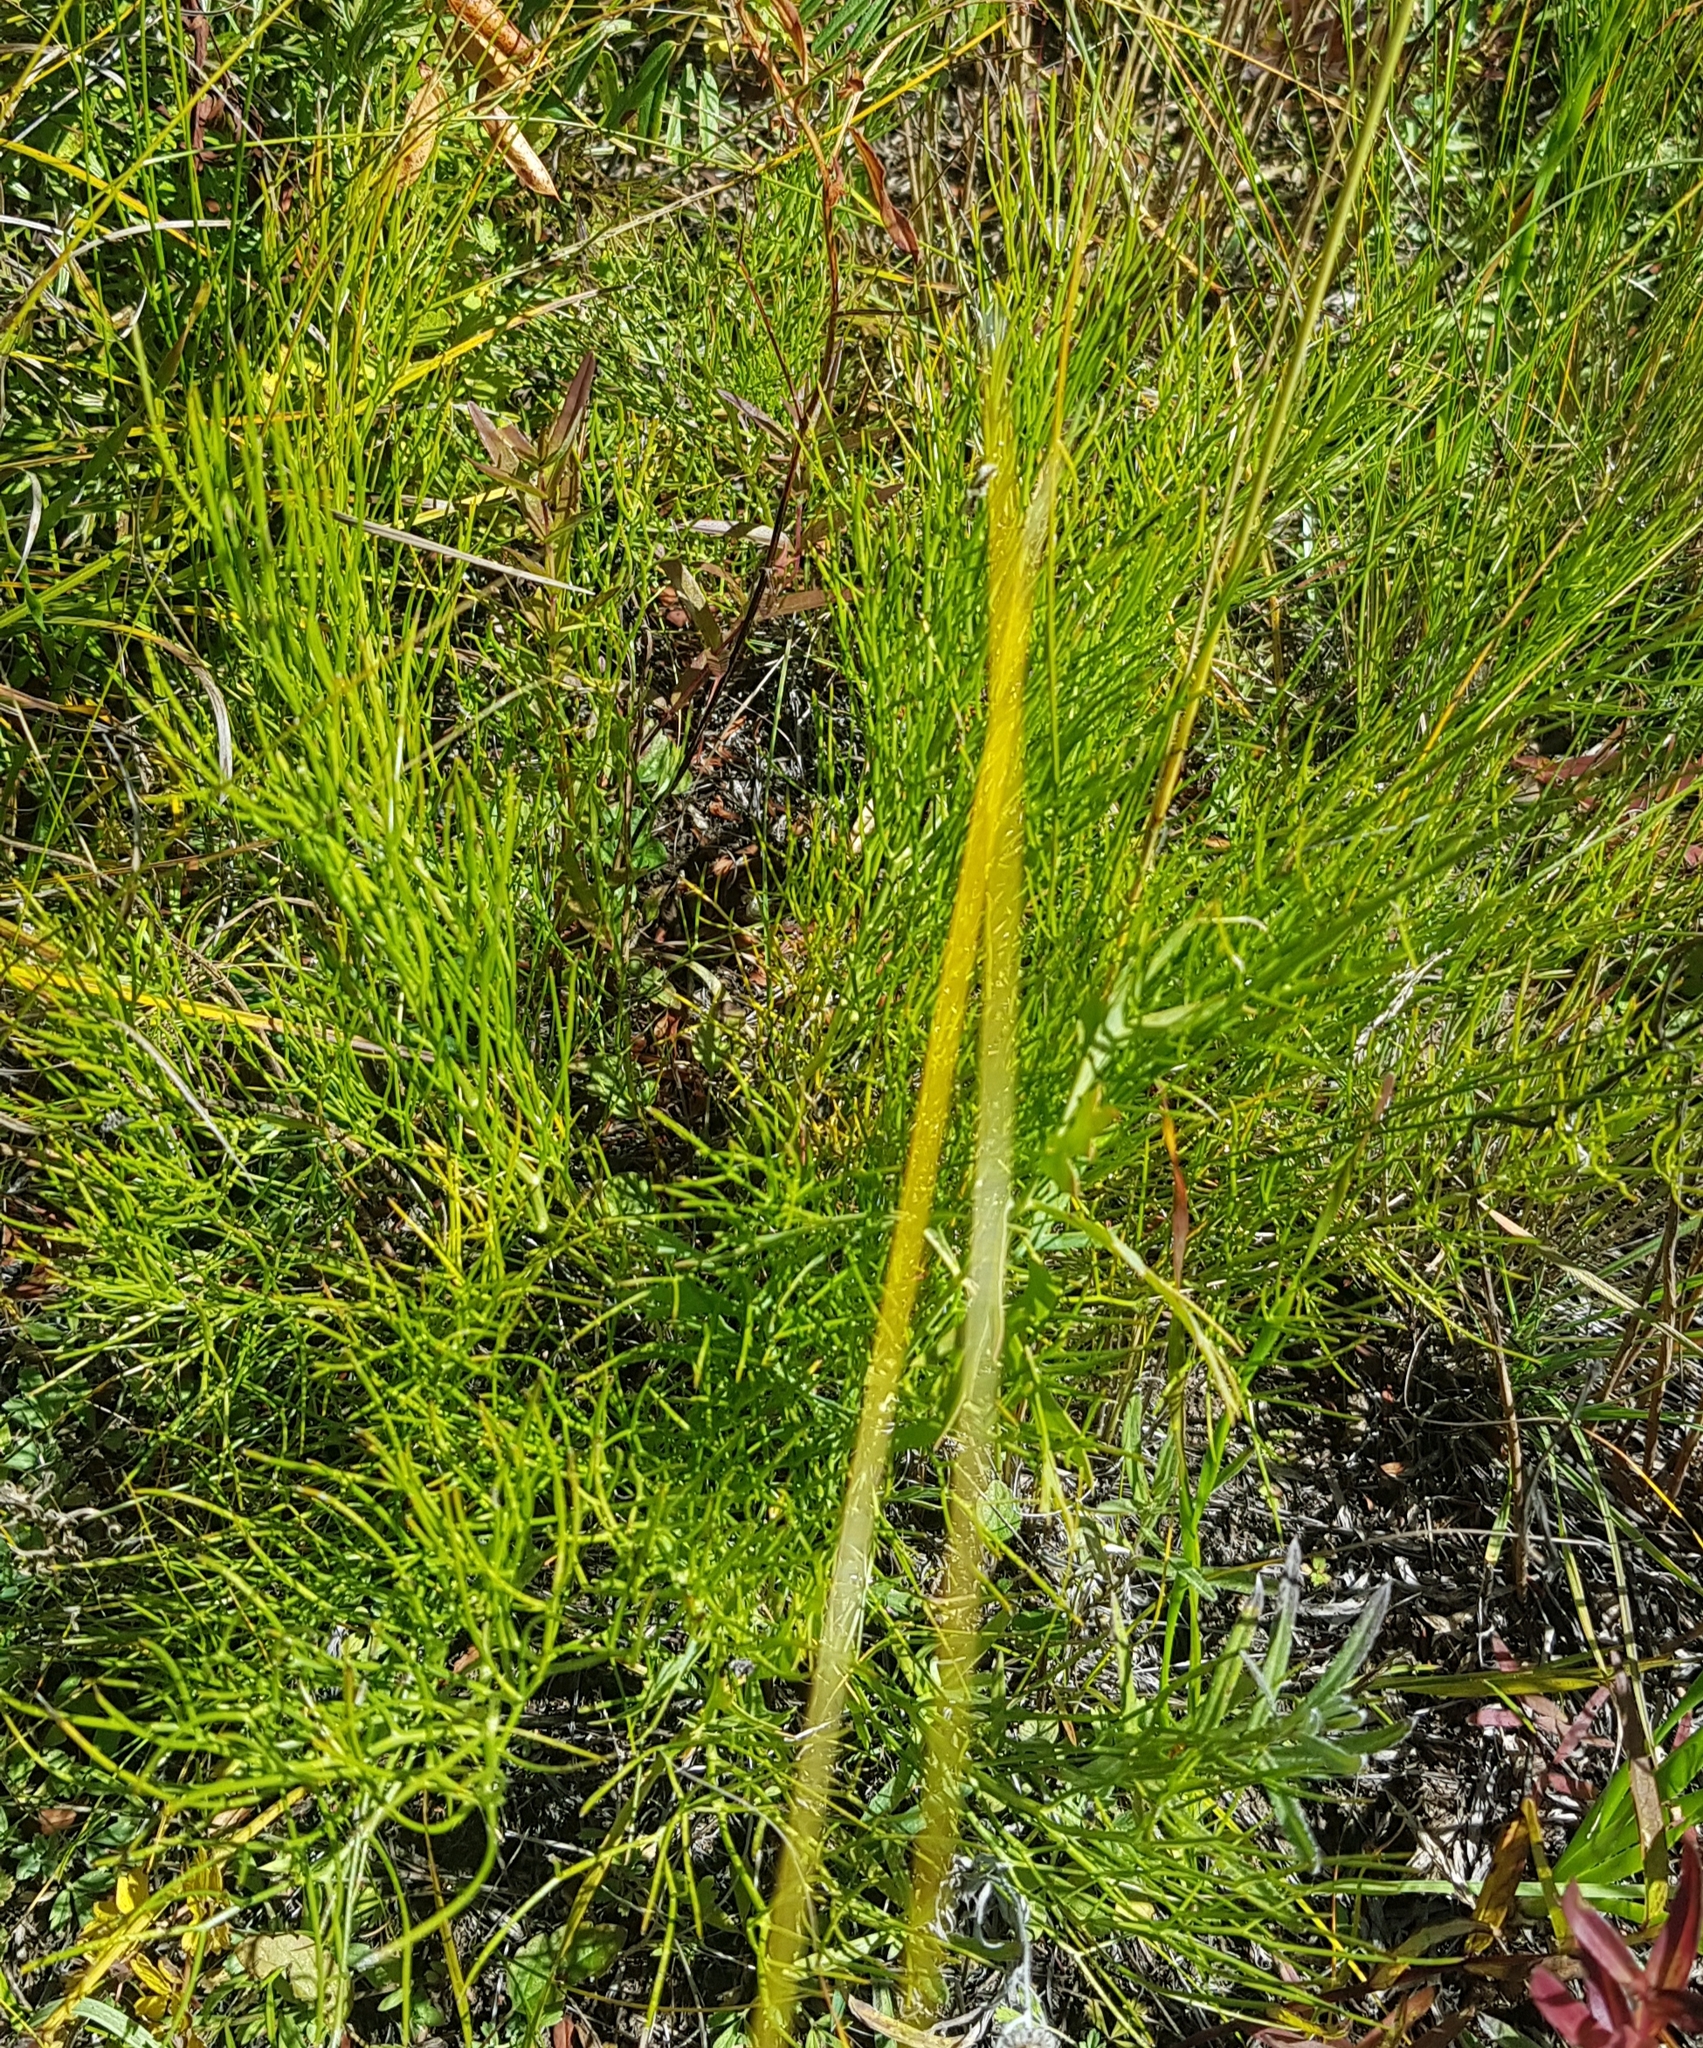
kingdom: Plantae
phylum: Tracheophyta
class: Magnoliopsida
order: Asterales
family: Asteraceae
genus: Filifolium
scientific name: Filifolium sibiricum
